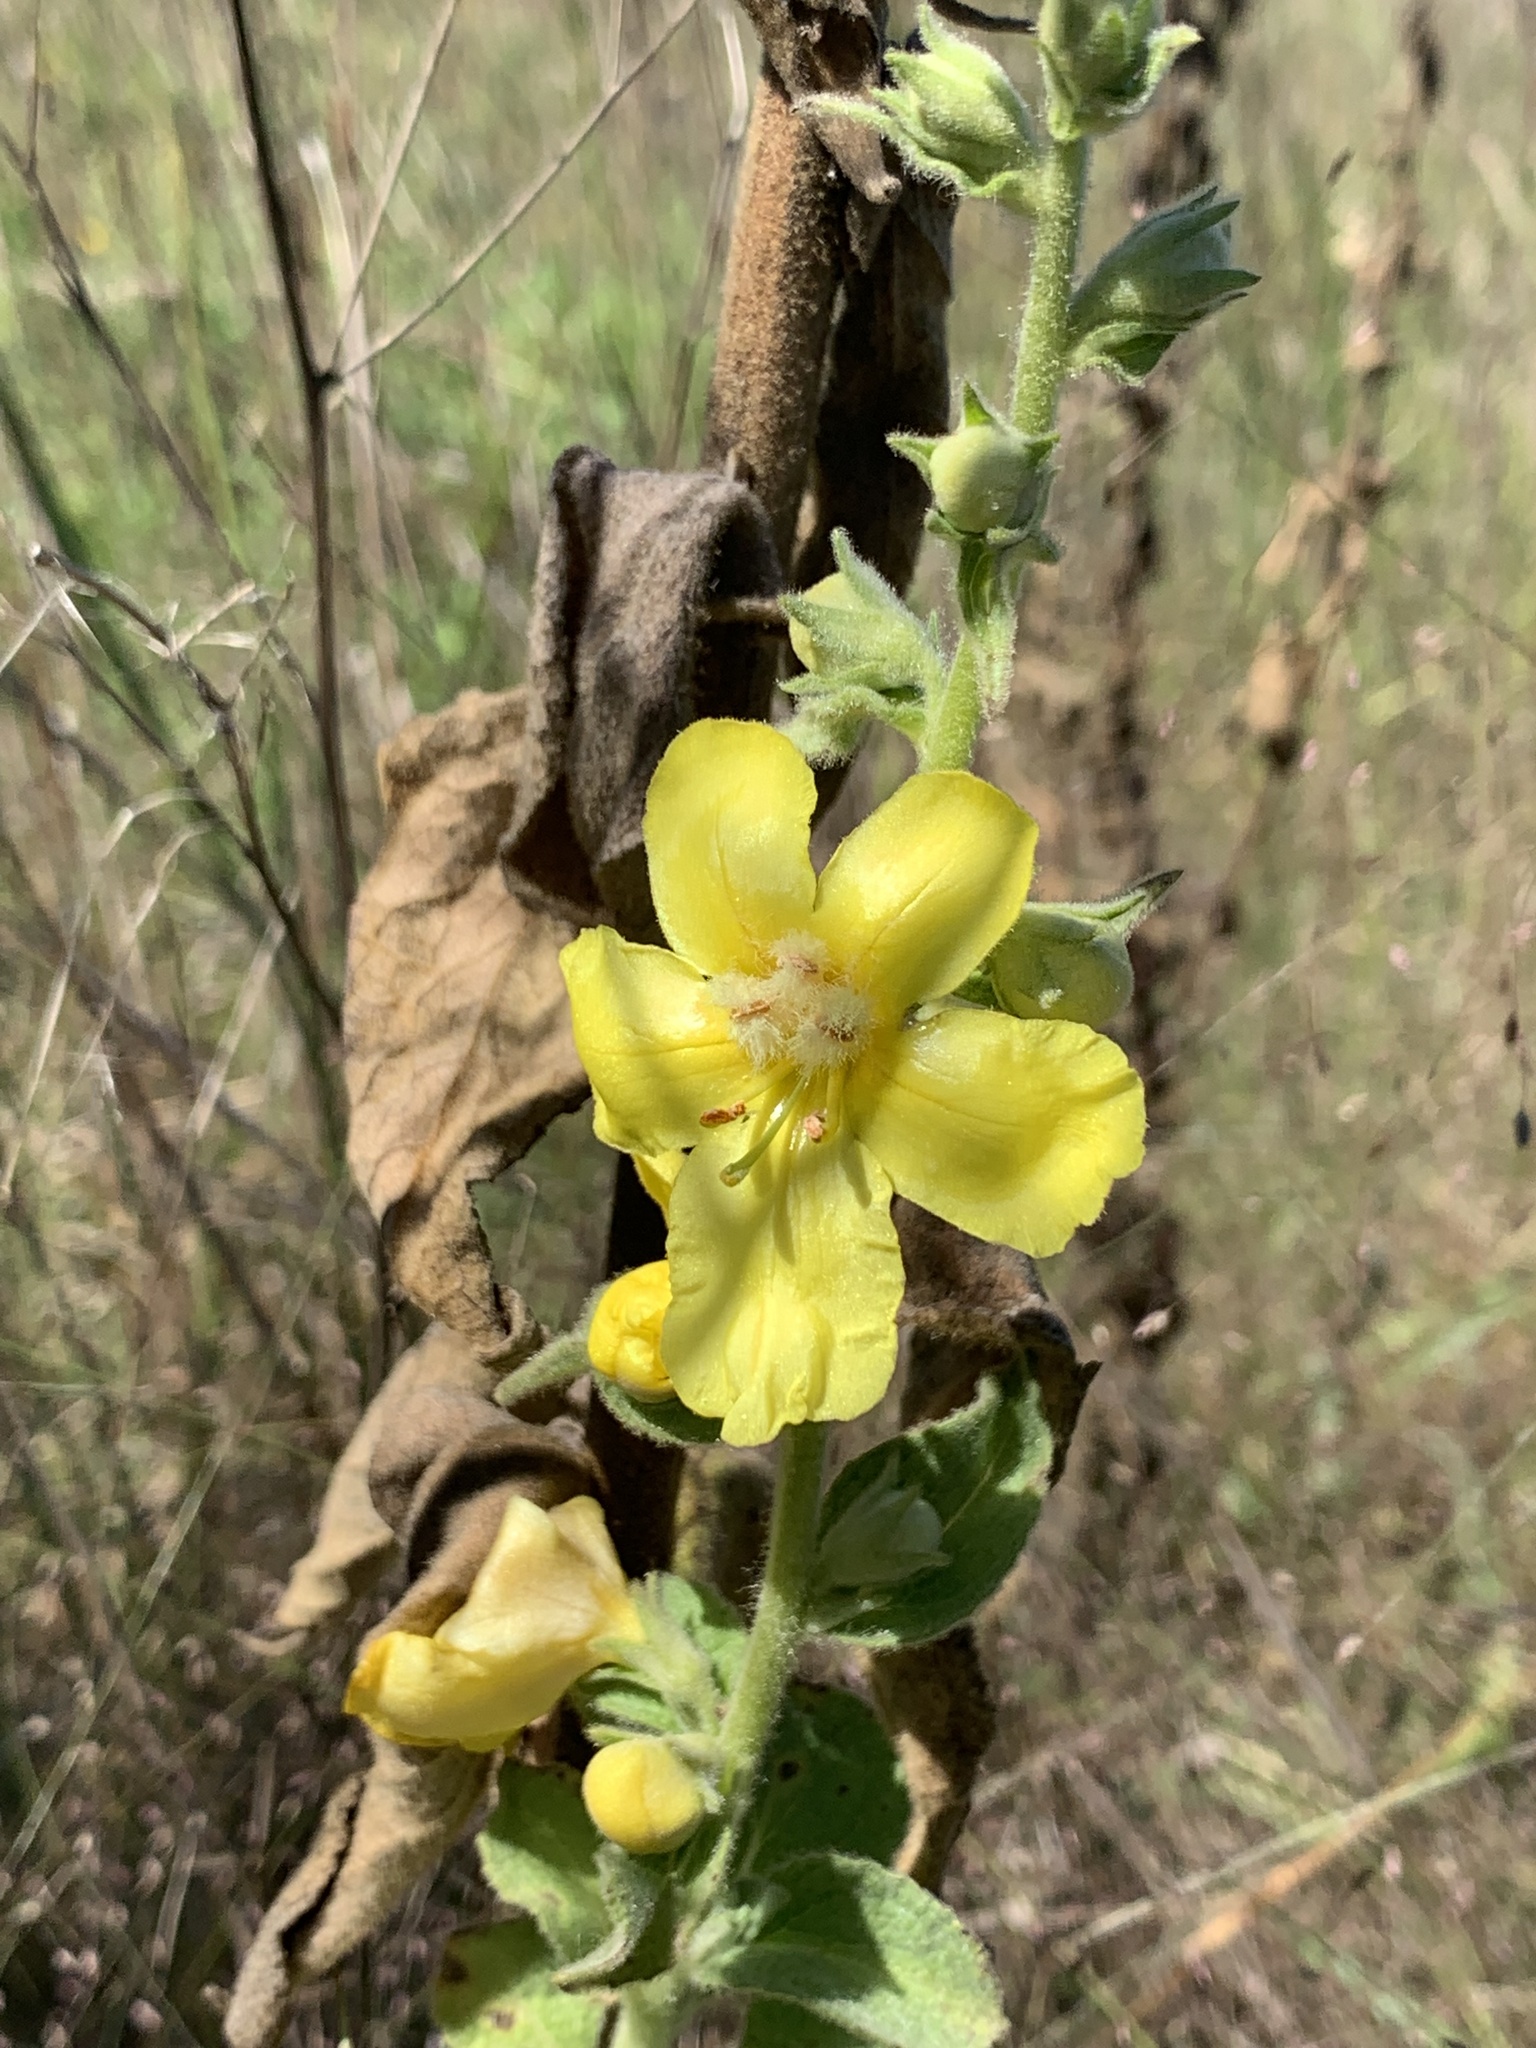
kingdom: Plantae
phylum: Tracheophyta
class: Magnoliopsida
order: Lamiales
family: Scrophulariaceae
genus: Verbascum
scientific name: Verbascum phlomoides
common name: Orange mullein
